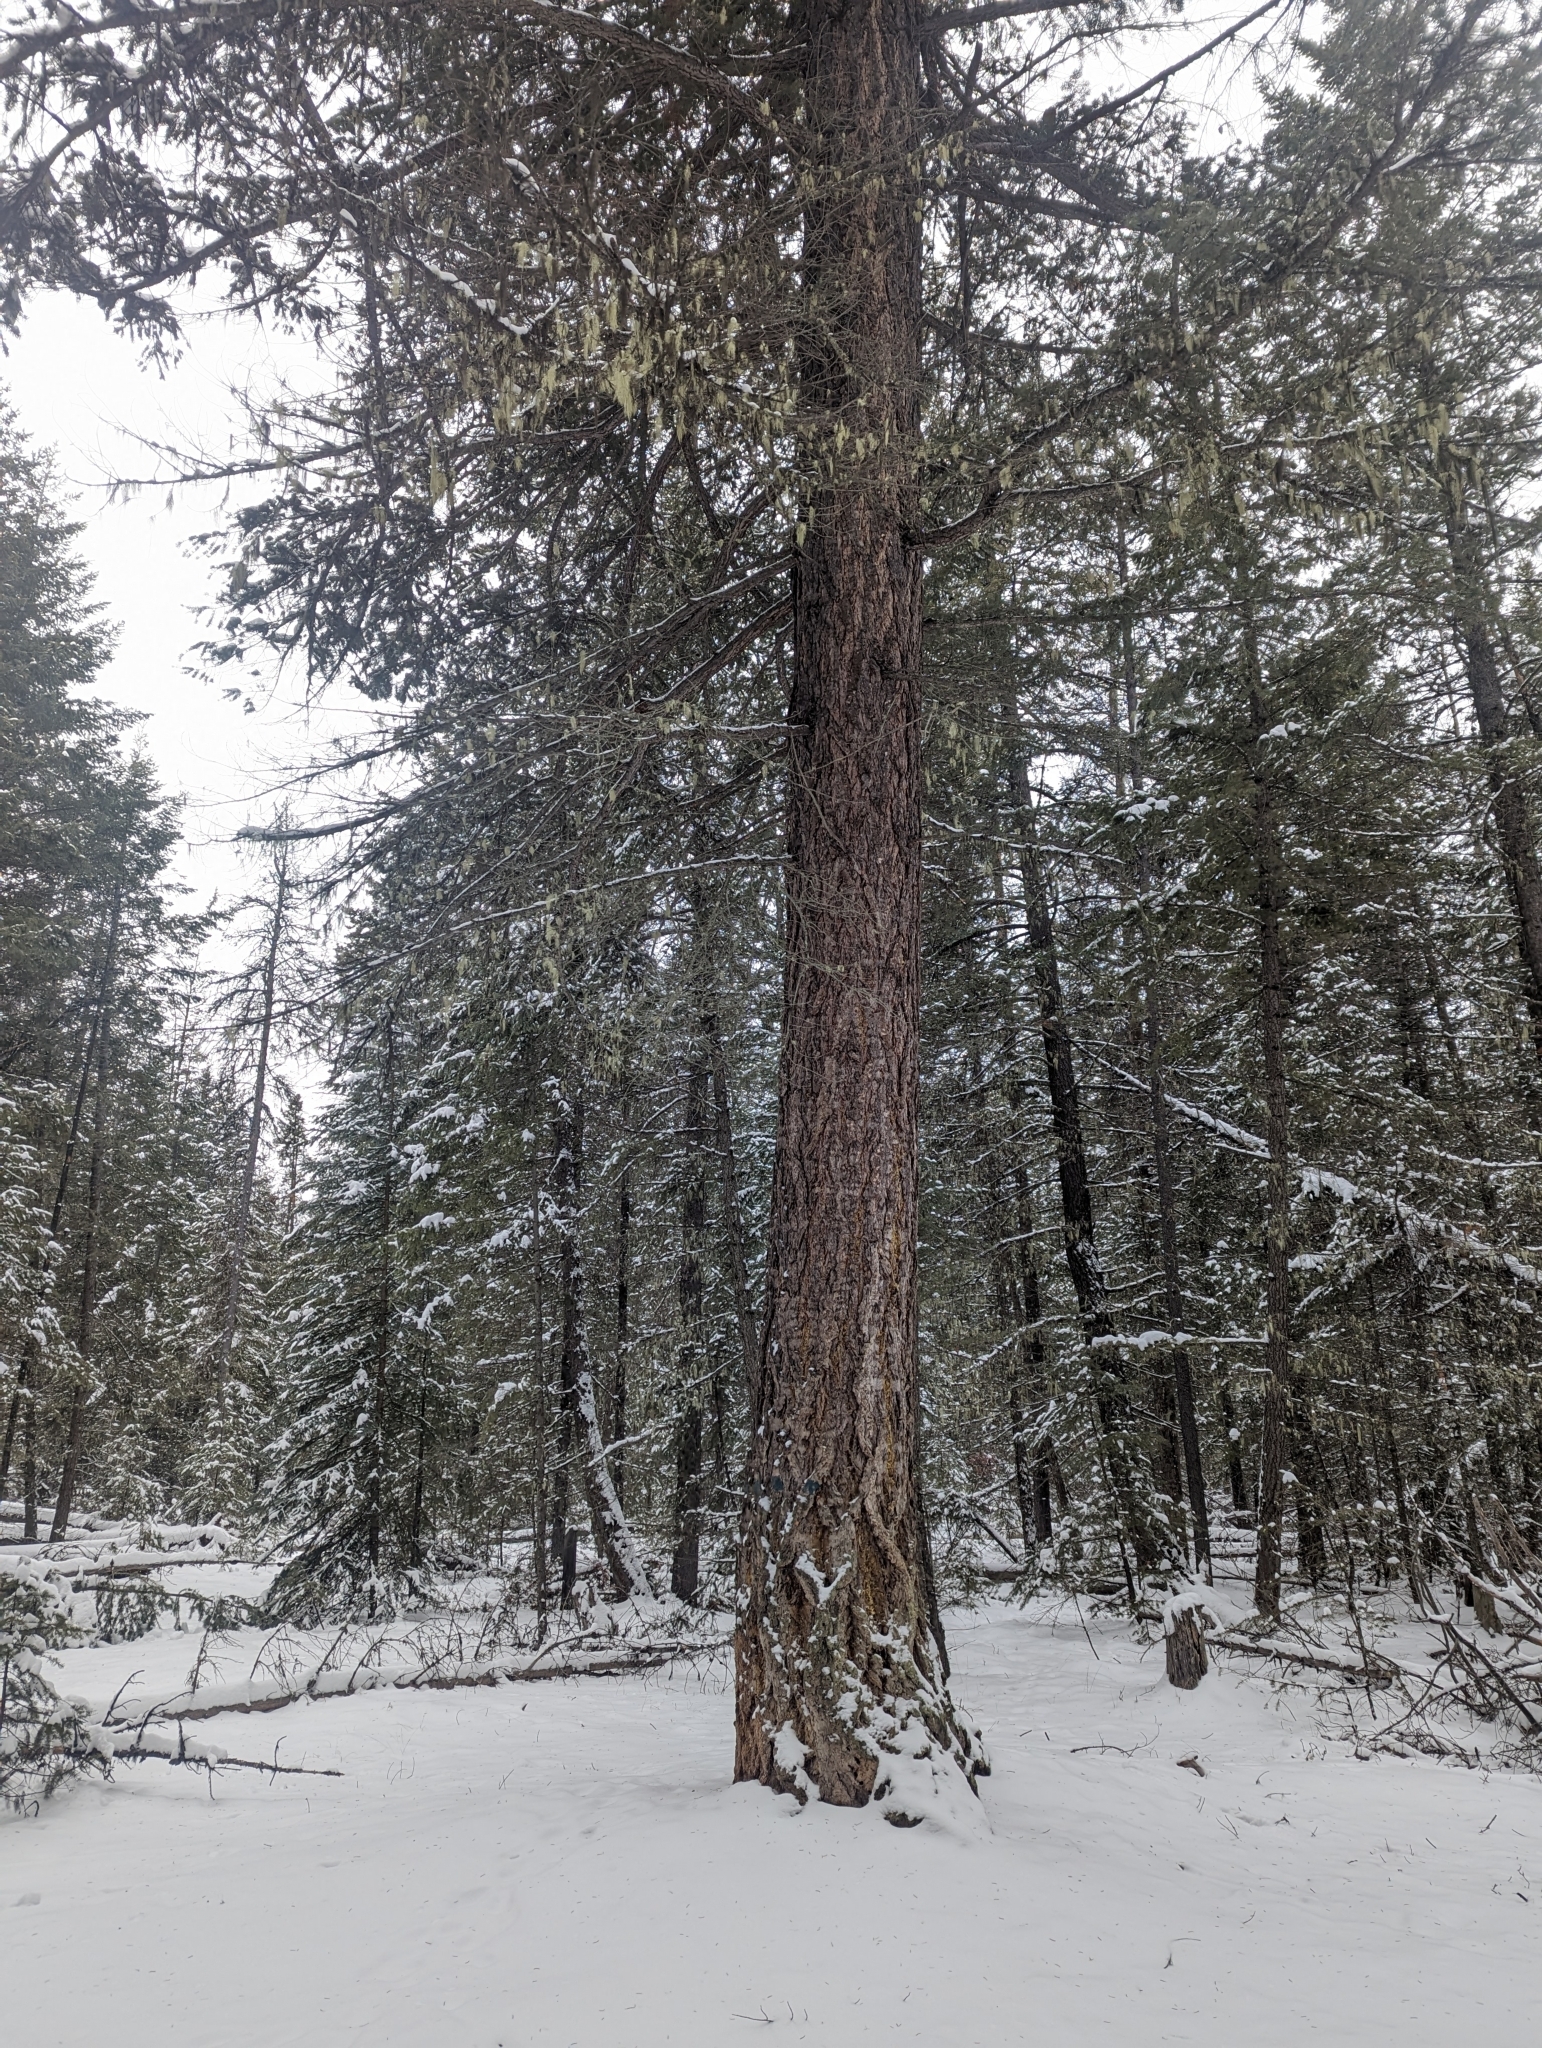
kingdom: Plantae
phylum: Tracheophyta
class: Pinopsida
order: Pinales
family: Pinaceae
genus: Pseudotsuga
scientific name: Pseudotsuga menziesii
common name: Douglas fir
